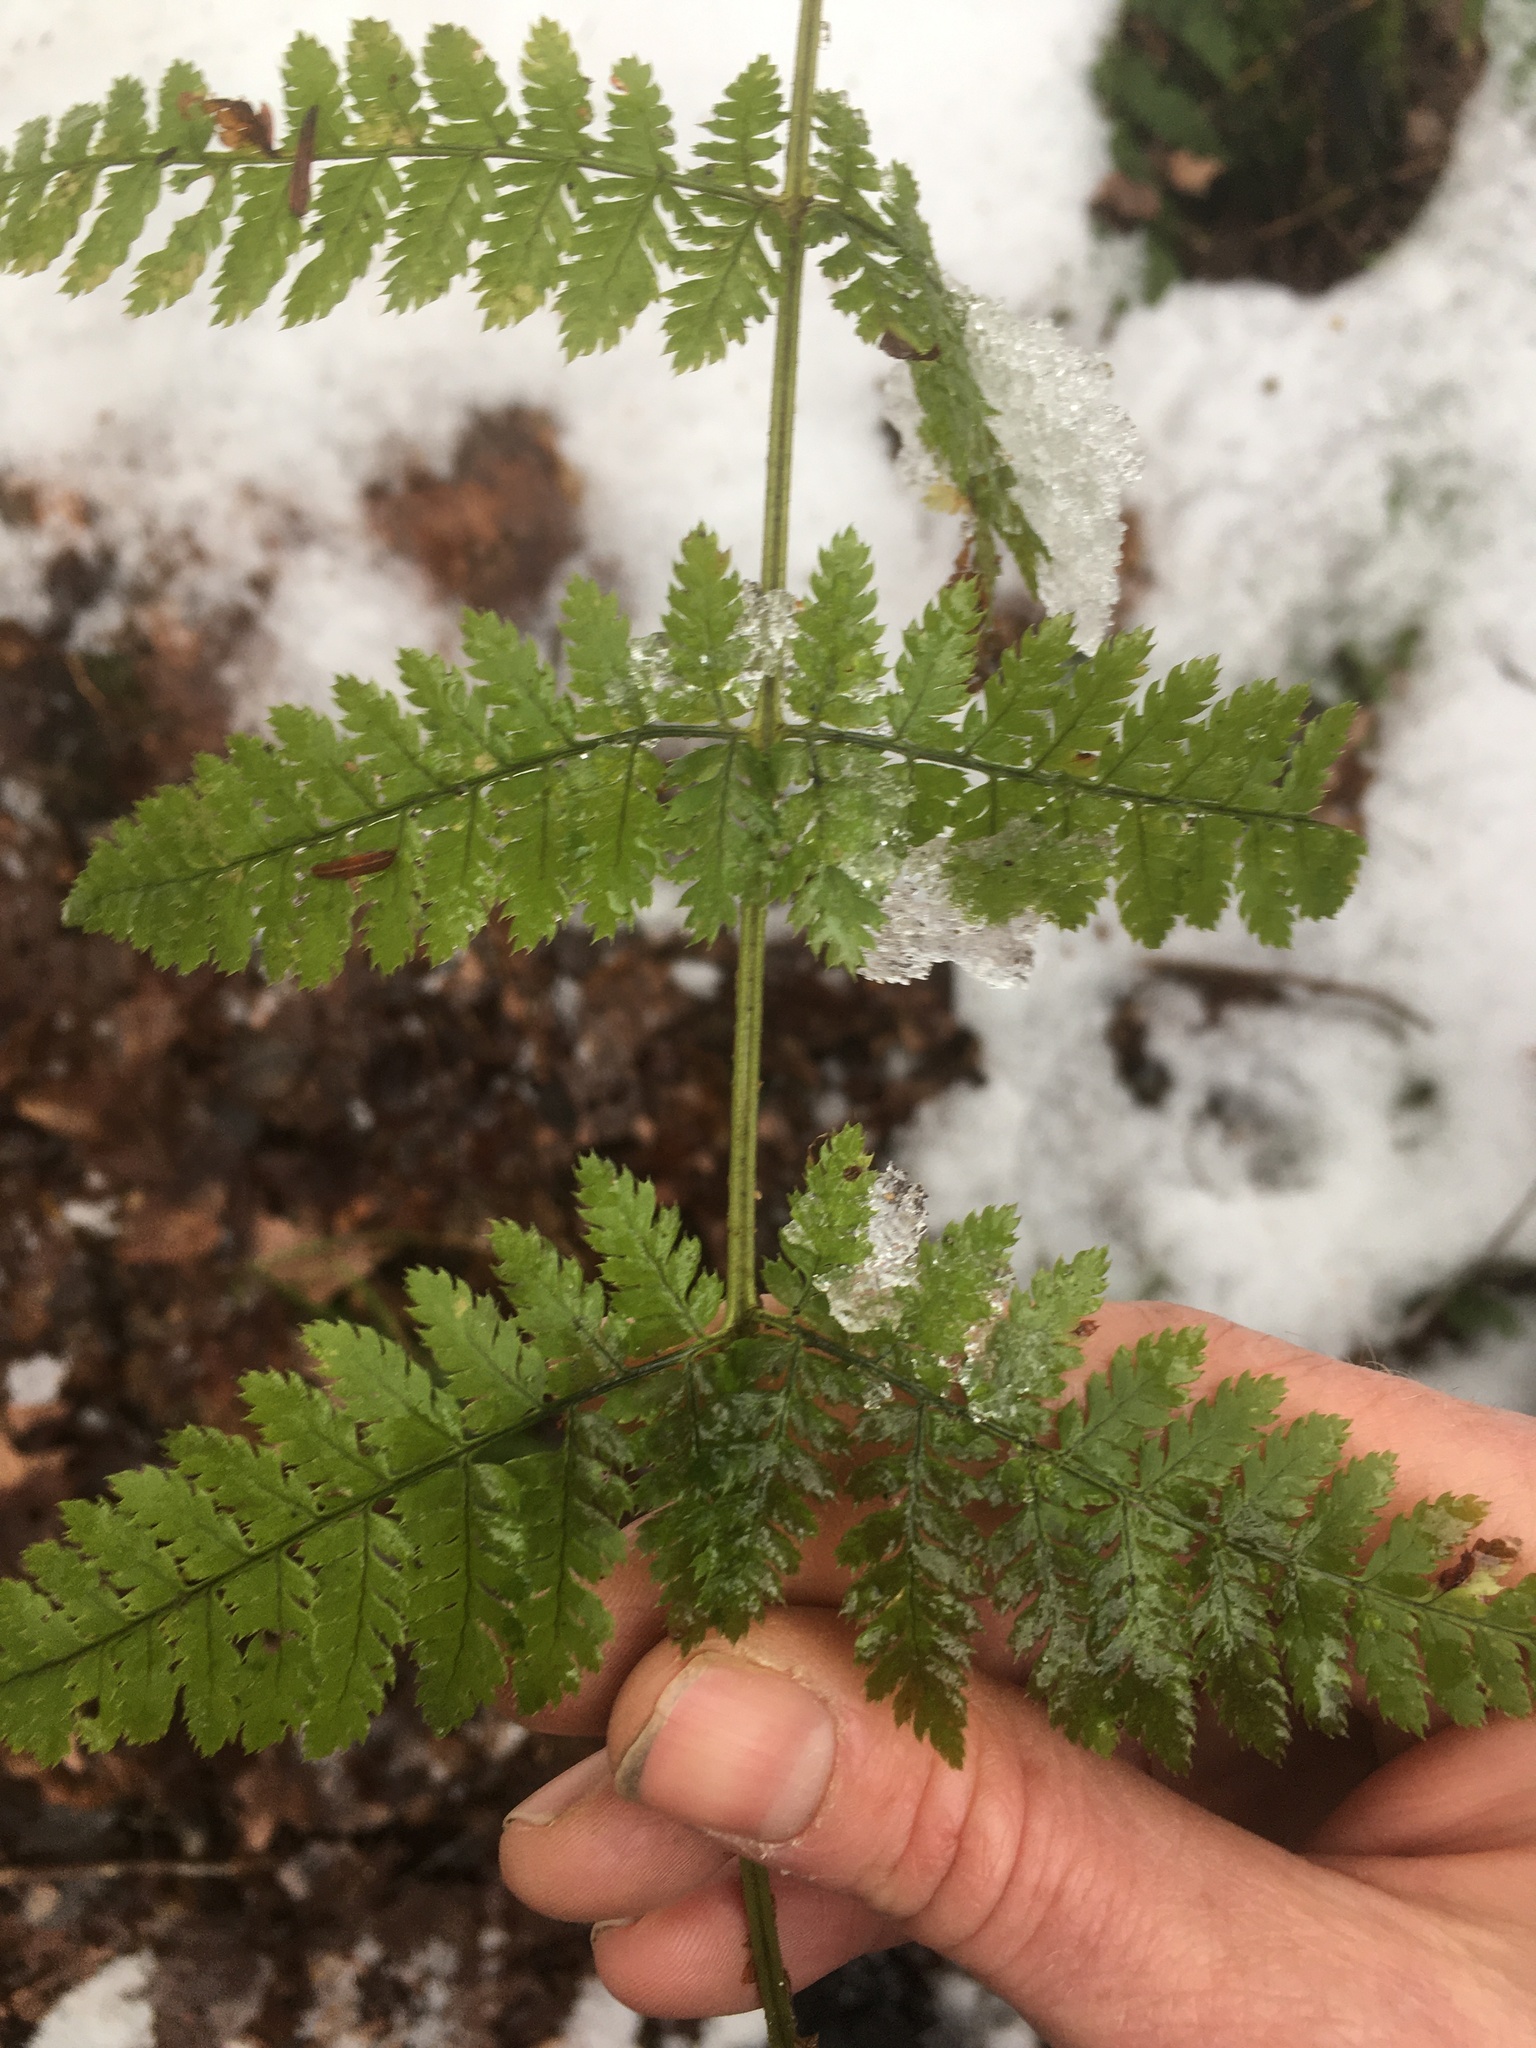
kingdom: Plantae
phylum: Tracheophyta
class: Polypodiopsida
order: Polypodiales
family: Dryopteridaceae
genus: Dryopteris
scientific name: Dryopteris intermedia
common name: Evergreen wood fern
